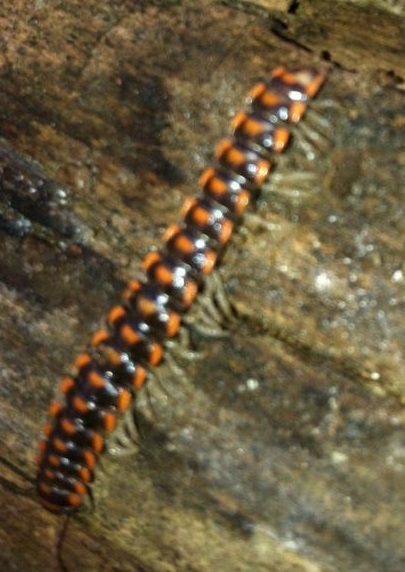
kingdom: Animalia
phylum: Arthropoda
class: Diplopoda
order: Polydesmida
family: Xystodesmidae
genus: Euryurus
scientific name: Euryurus evides
